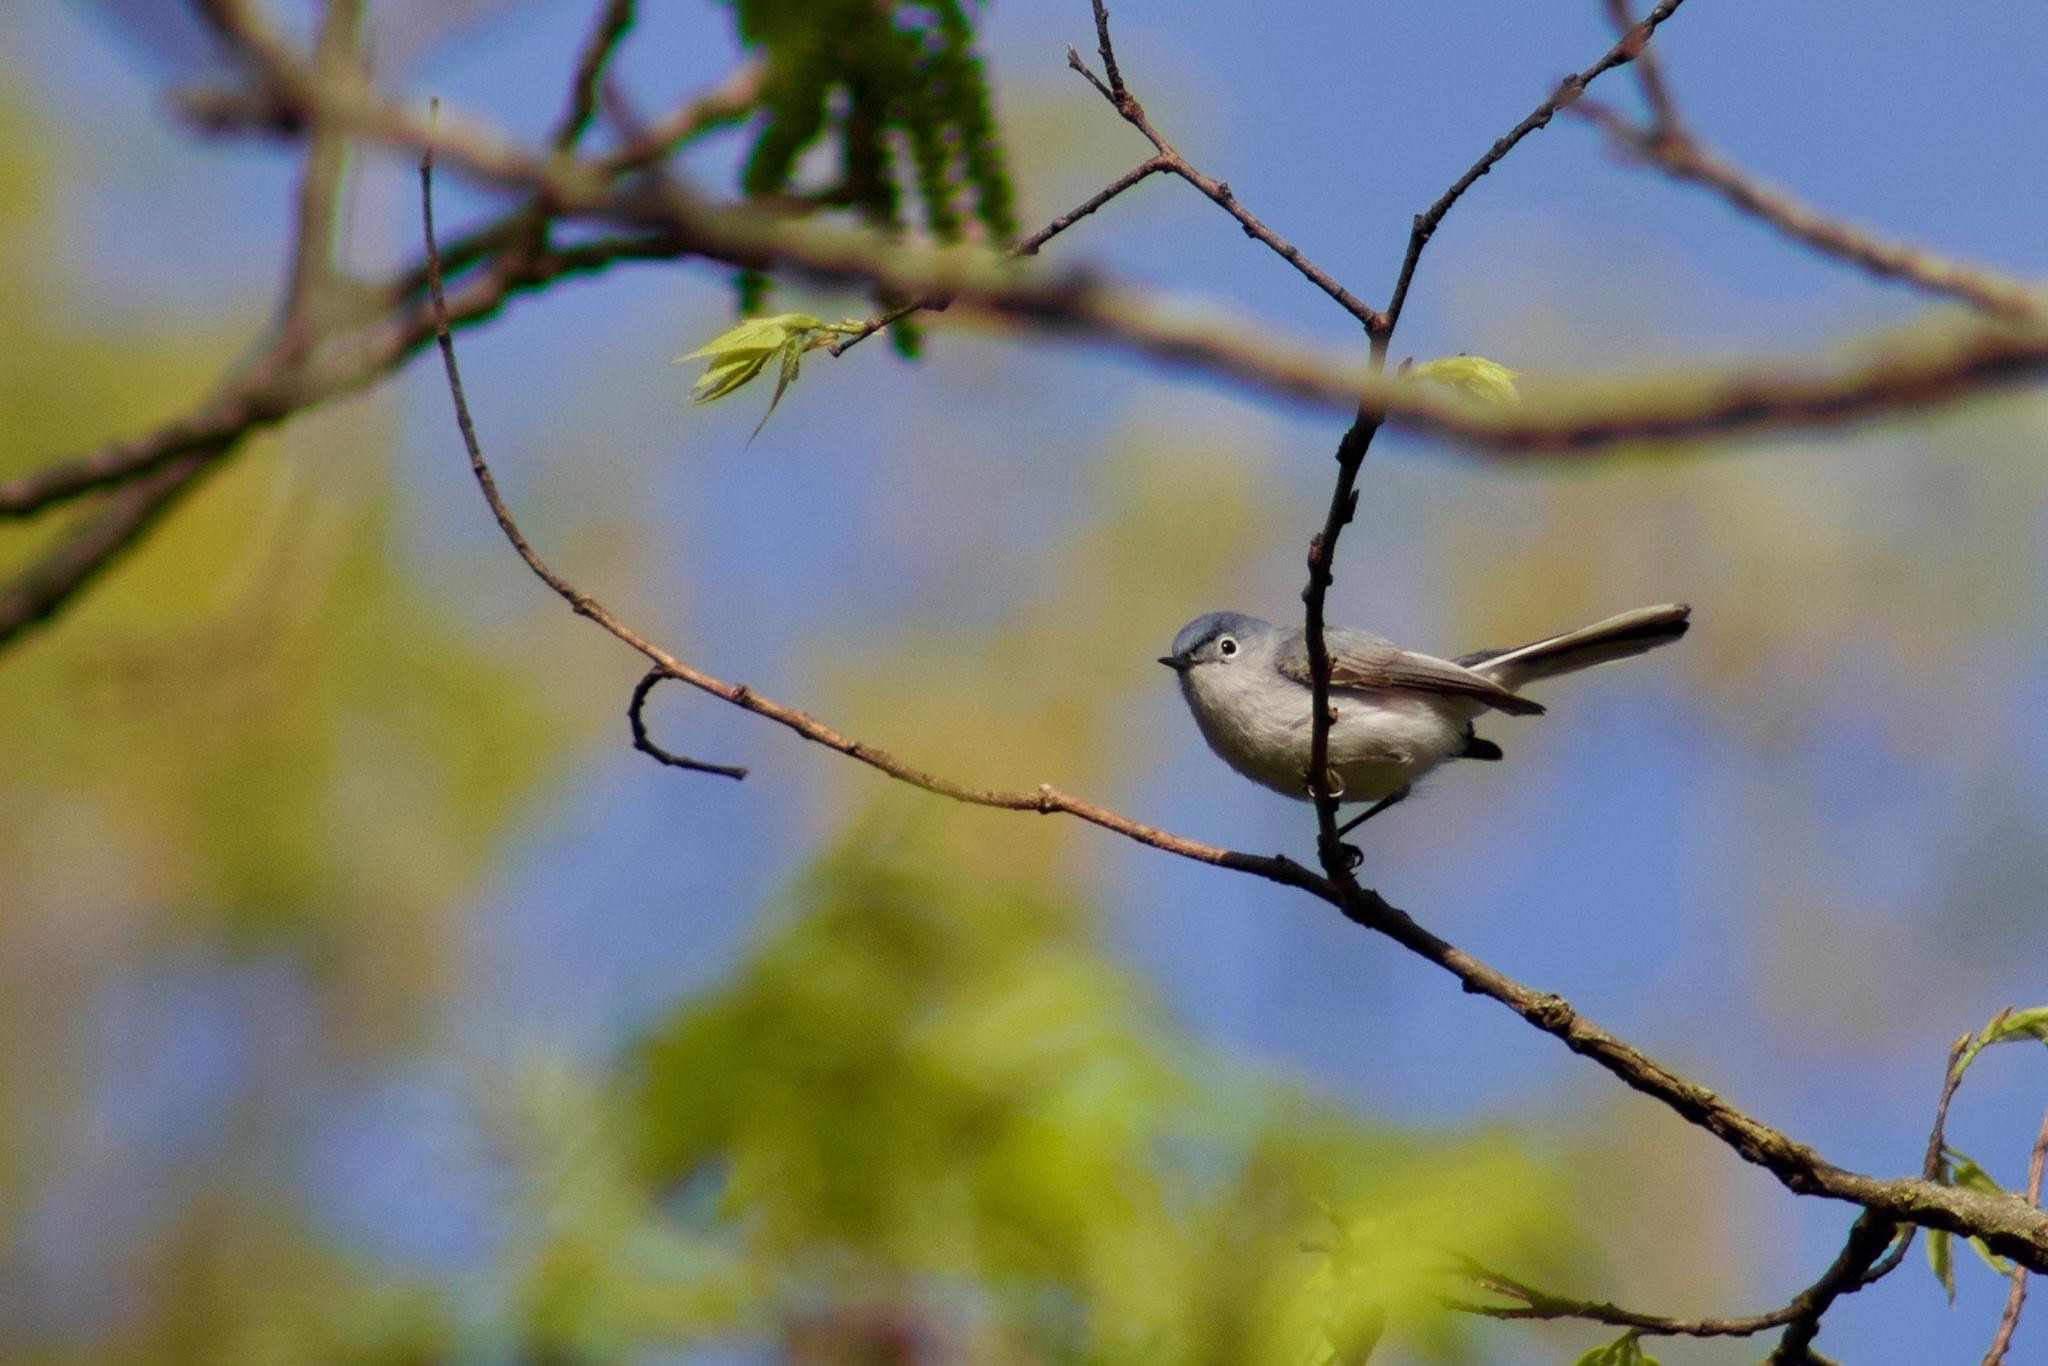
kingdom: Animalia
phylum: Chordata
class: Aves
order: Passeriformes
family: Polioptilidae
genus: Polioptila
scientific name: Polioptila caerulea
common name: Blue-gray gnatcatcher
